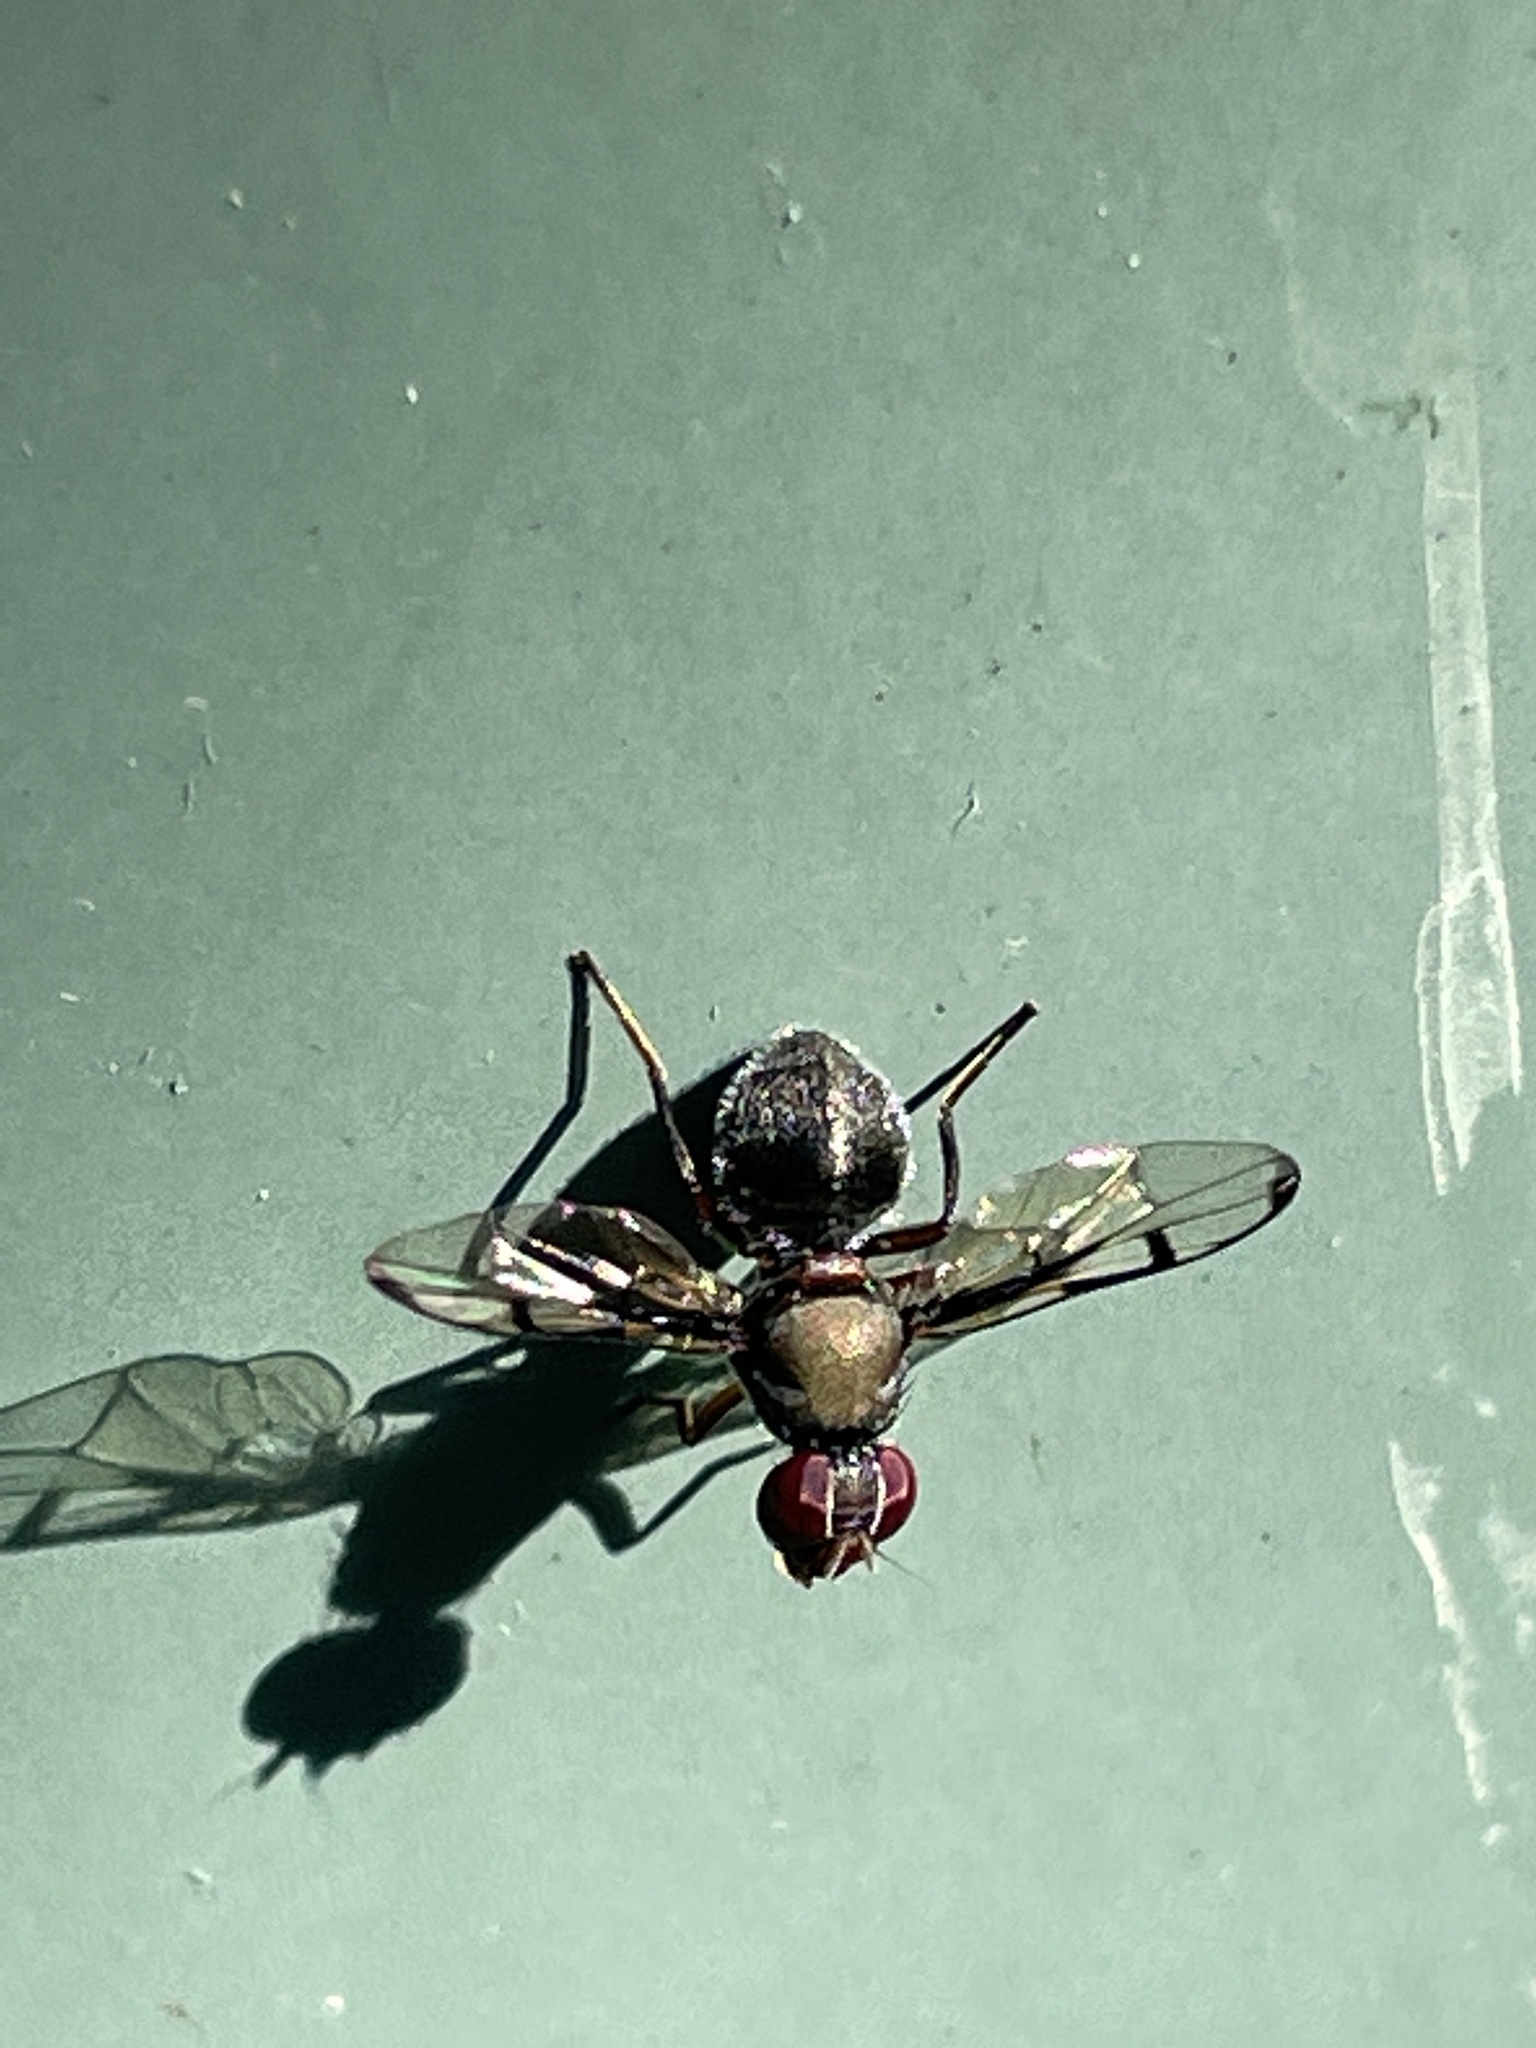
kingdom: Animalia
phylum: Arthropoda
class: Insecta
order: Diptera
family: Platystomatidae
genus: Pogonortalis
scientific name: Pogonortalis doclea
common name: Boatman fly
